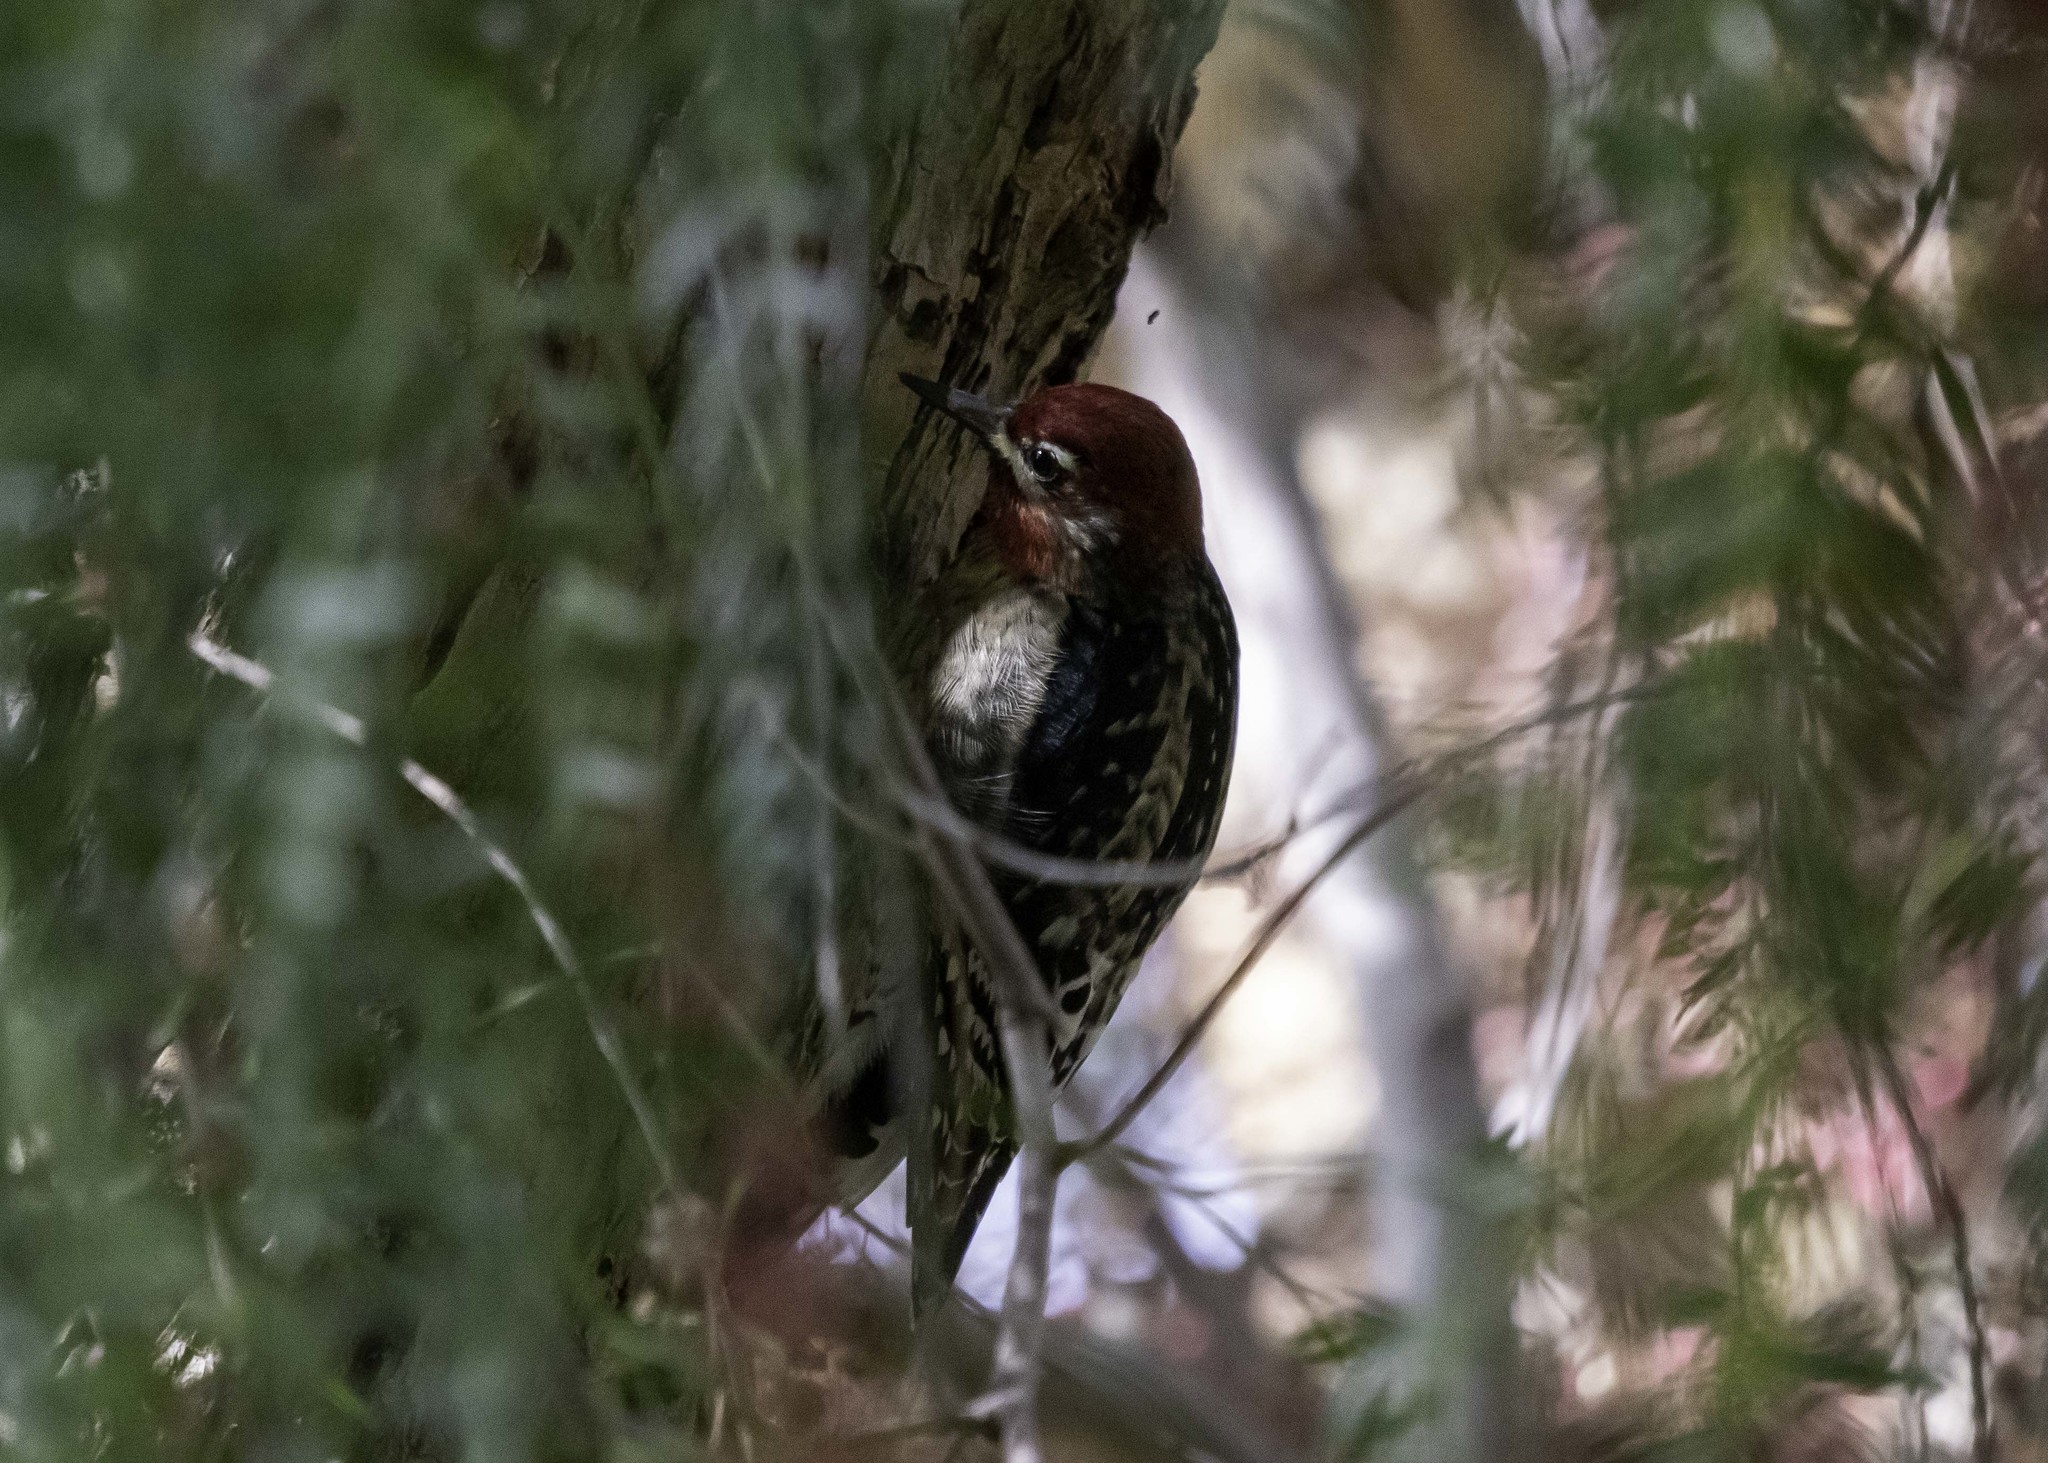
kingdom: Animalia
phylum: Chordata
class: Aves
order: Piciformes
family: Picidae
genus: Sphyrapicus
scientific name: Sphyrapicus
